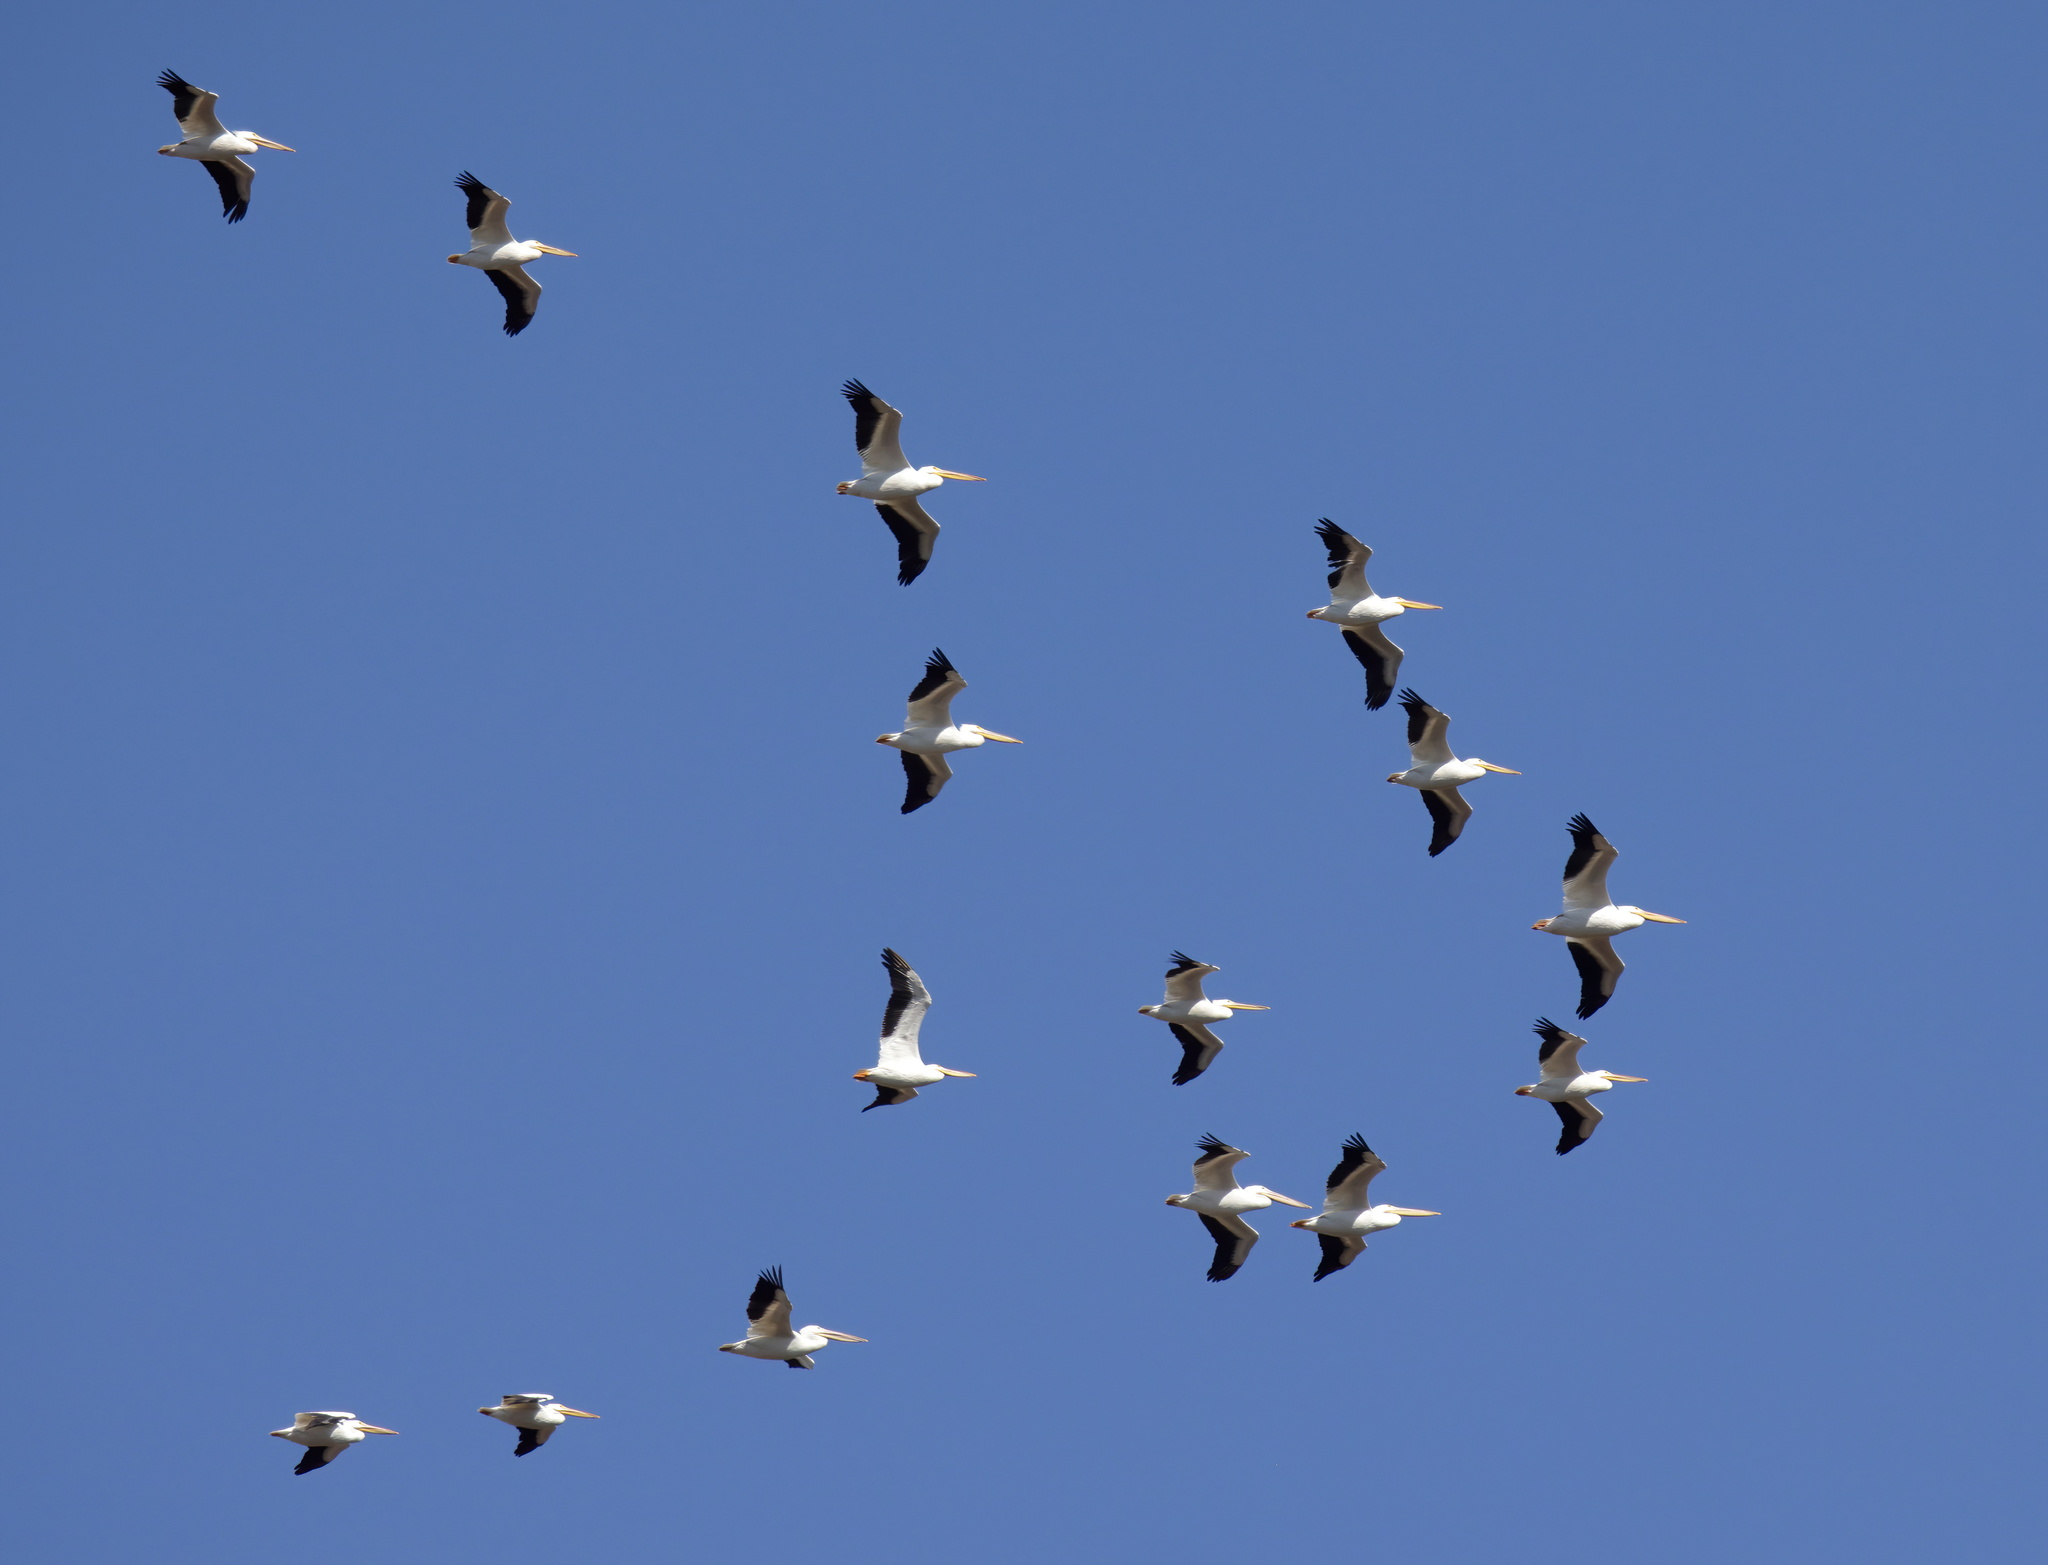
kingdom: Animalia
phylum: Chordata
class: Aves
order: Pelecaniformes
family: Pelecanidae
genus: Pelecanus
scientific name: Pelecanus erythrorhynchos
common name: American white pelican
